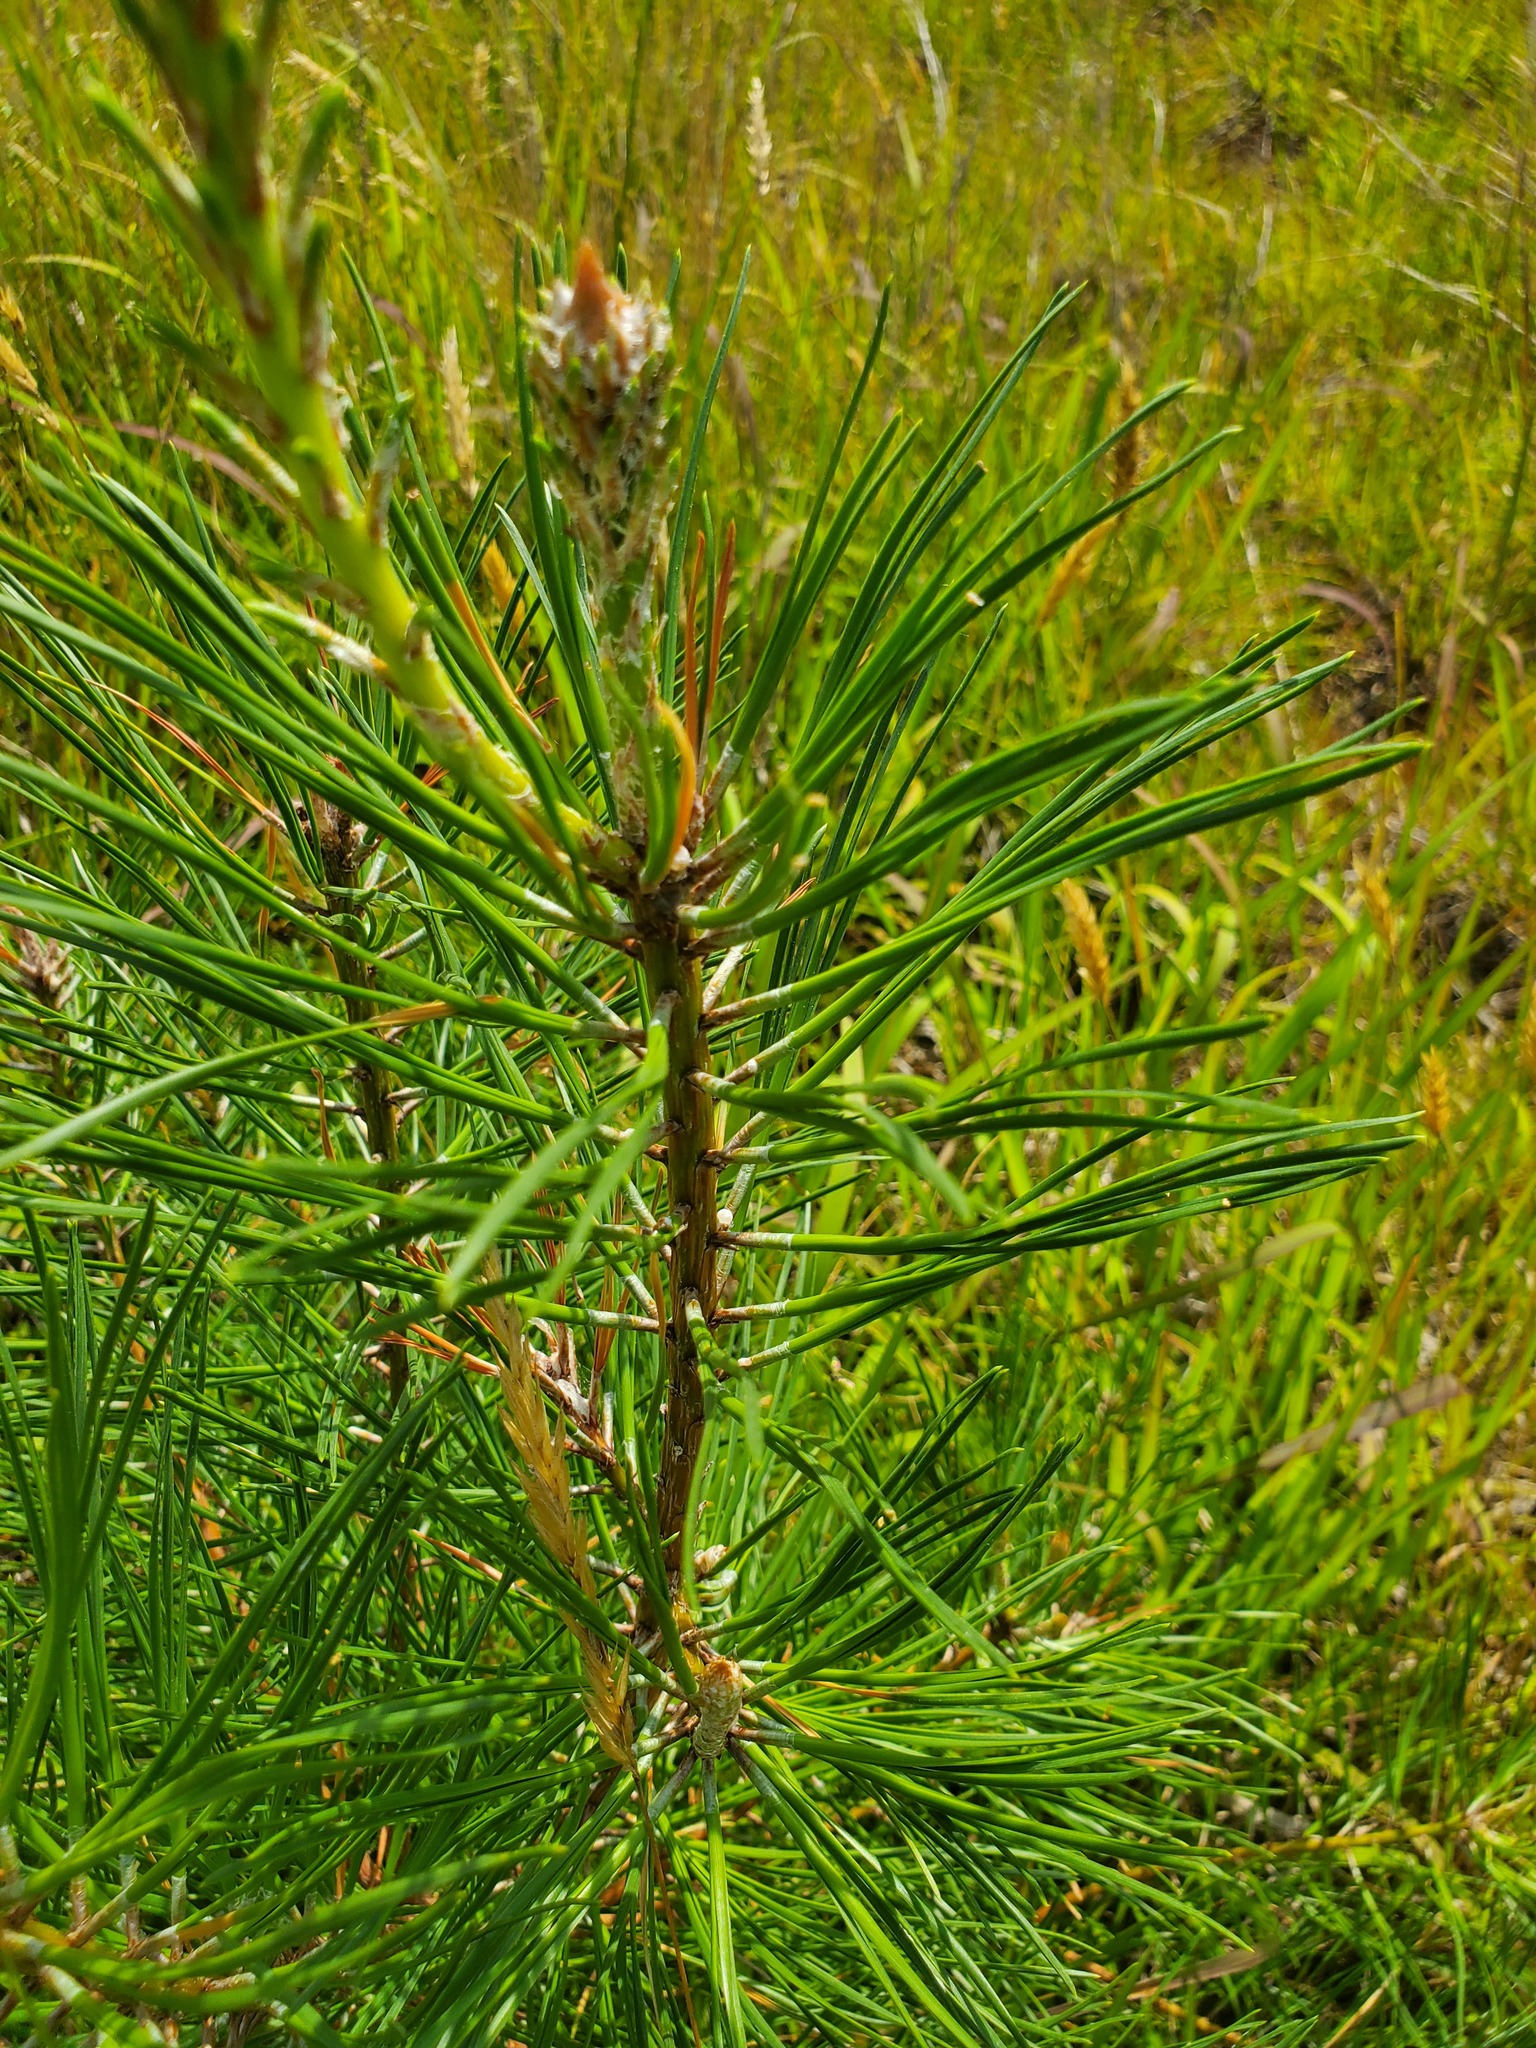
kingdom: Plantae
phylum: Tracheophyta
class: Pinopsida
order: Pinales
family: Pinaceae
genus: Pinus
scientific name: Pinus rigida
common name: Pitch pine
